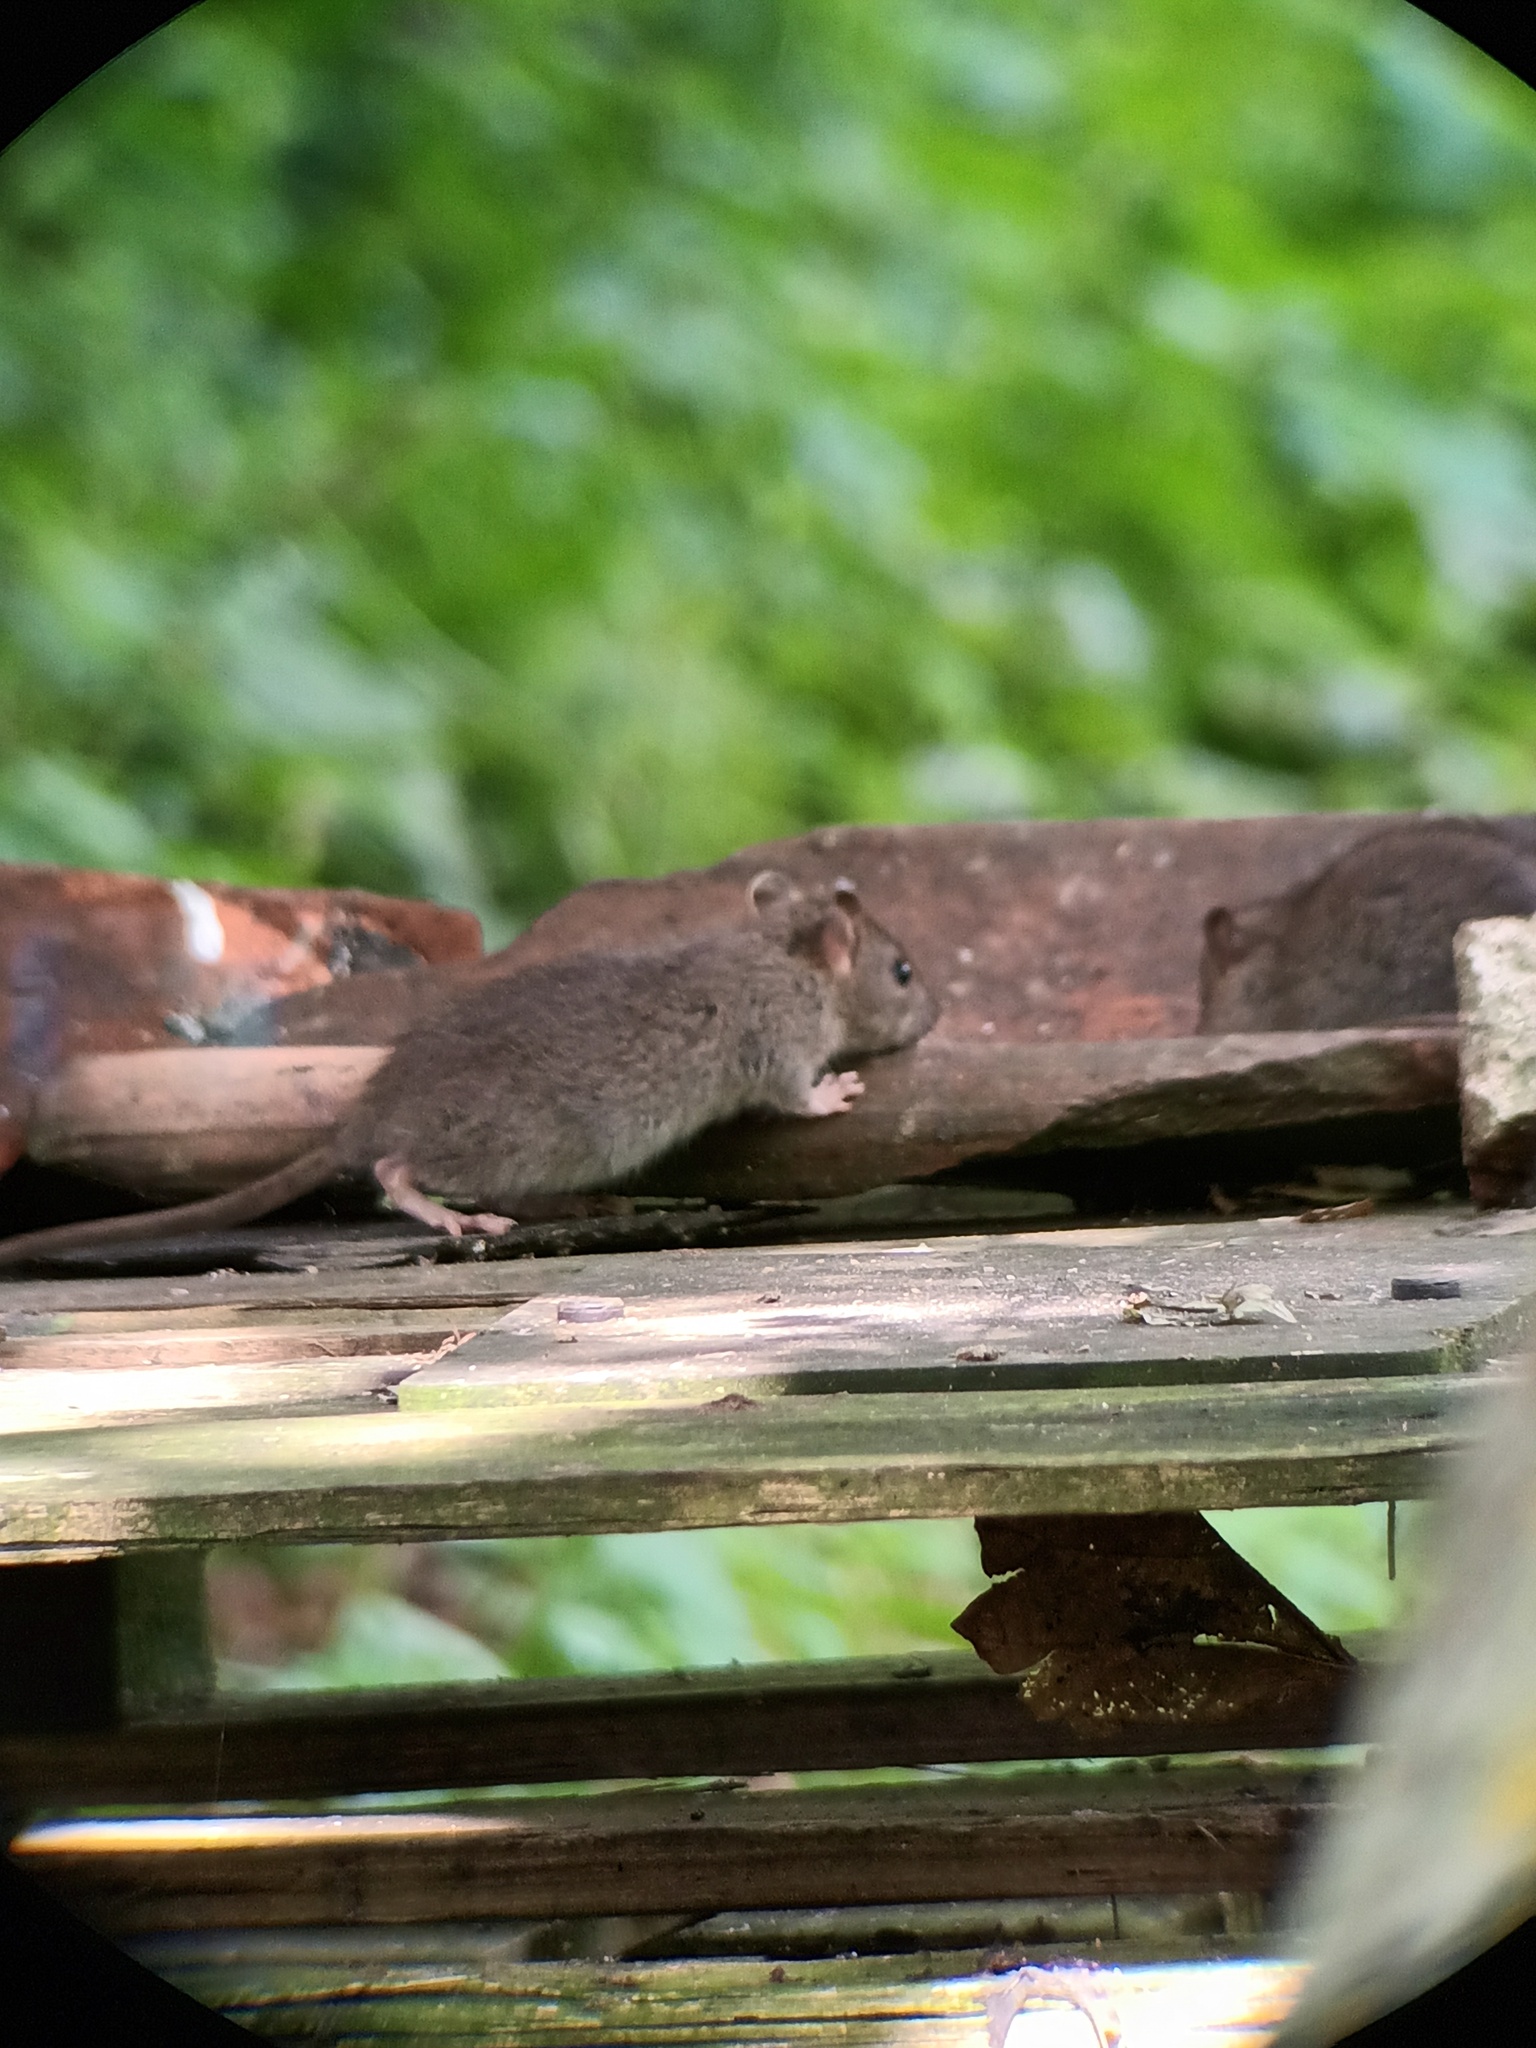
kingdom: Animalia
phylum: Chordata
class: Mammalia
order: Rodentia
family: Muridae
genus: Rattus
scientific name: Rattus norvegicus
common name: Brown rat
